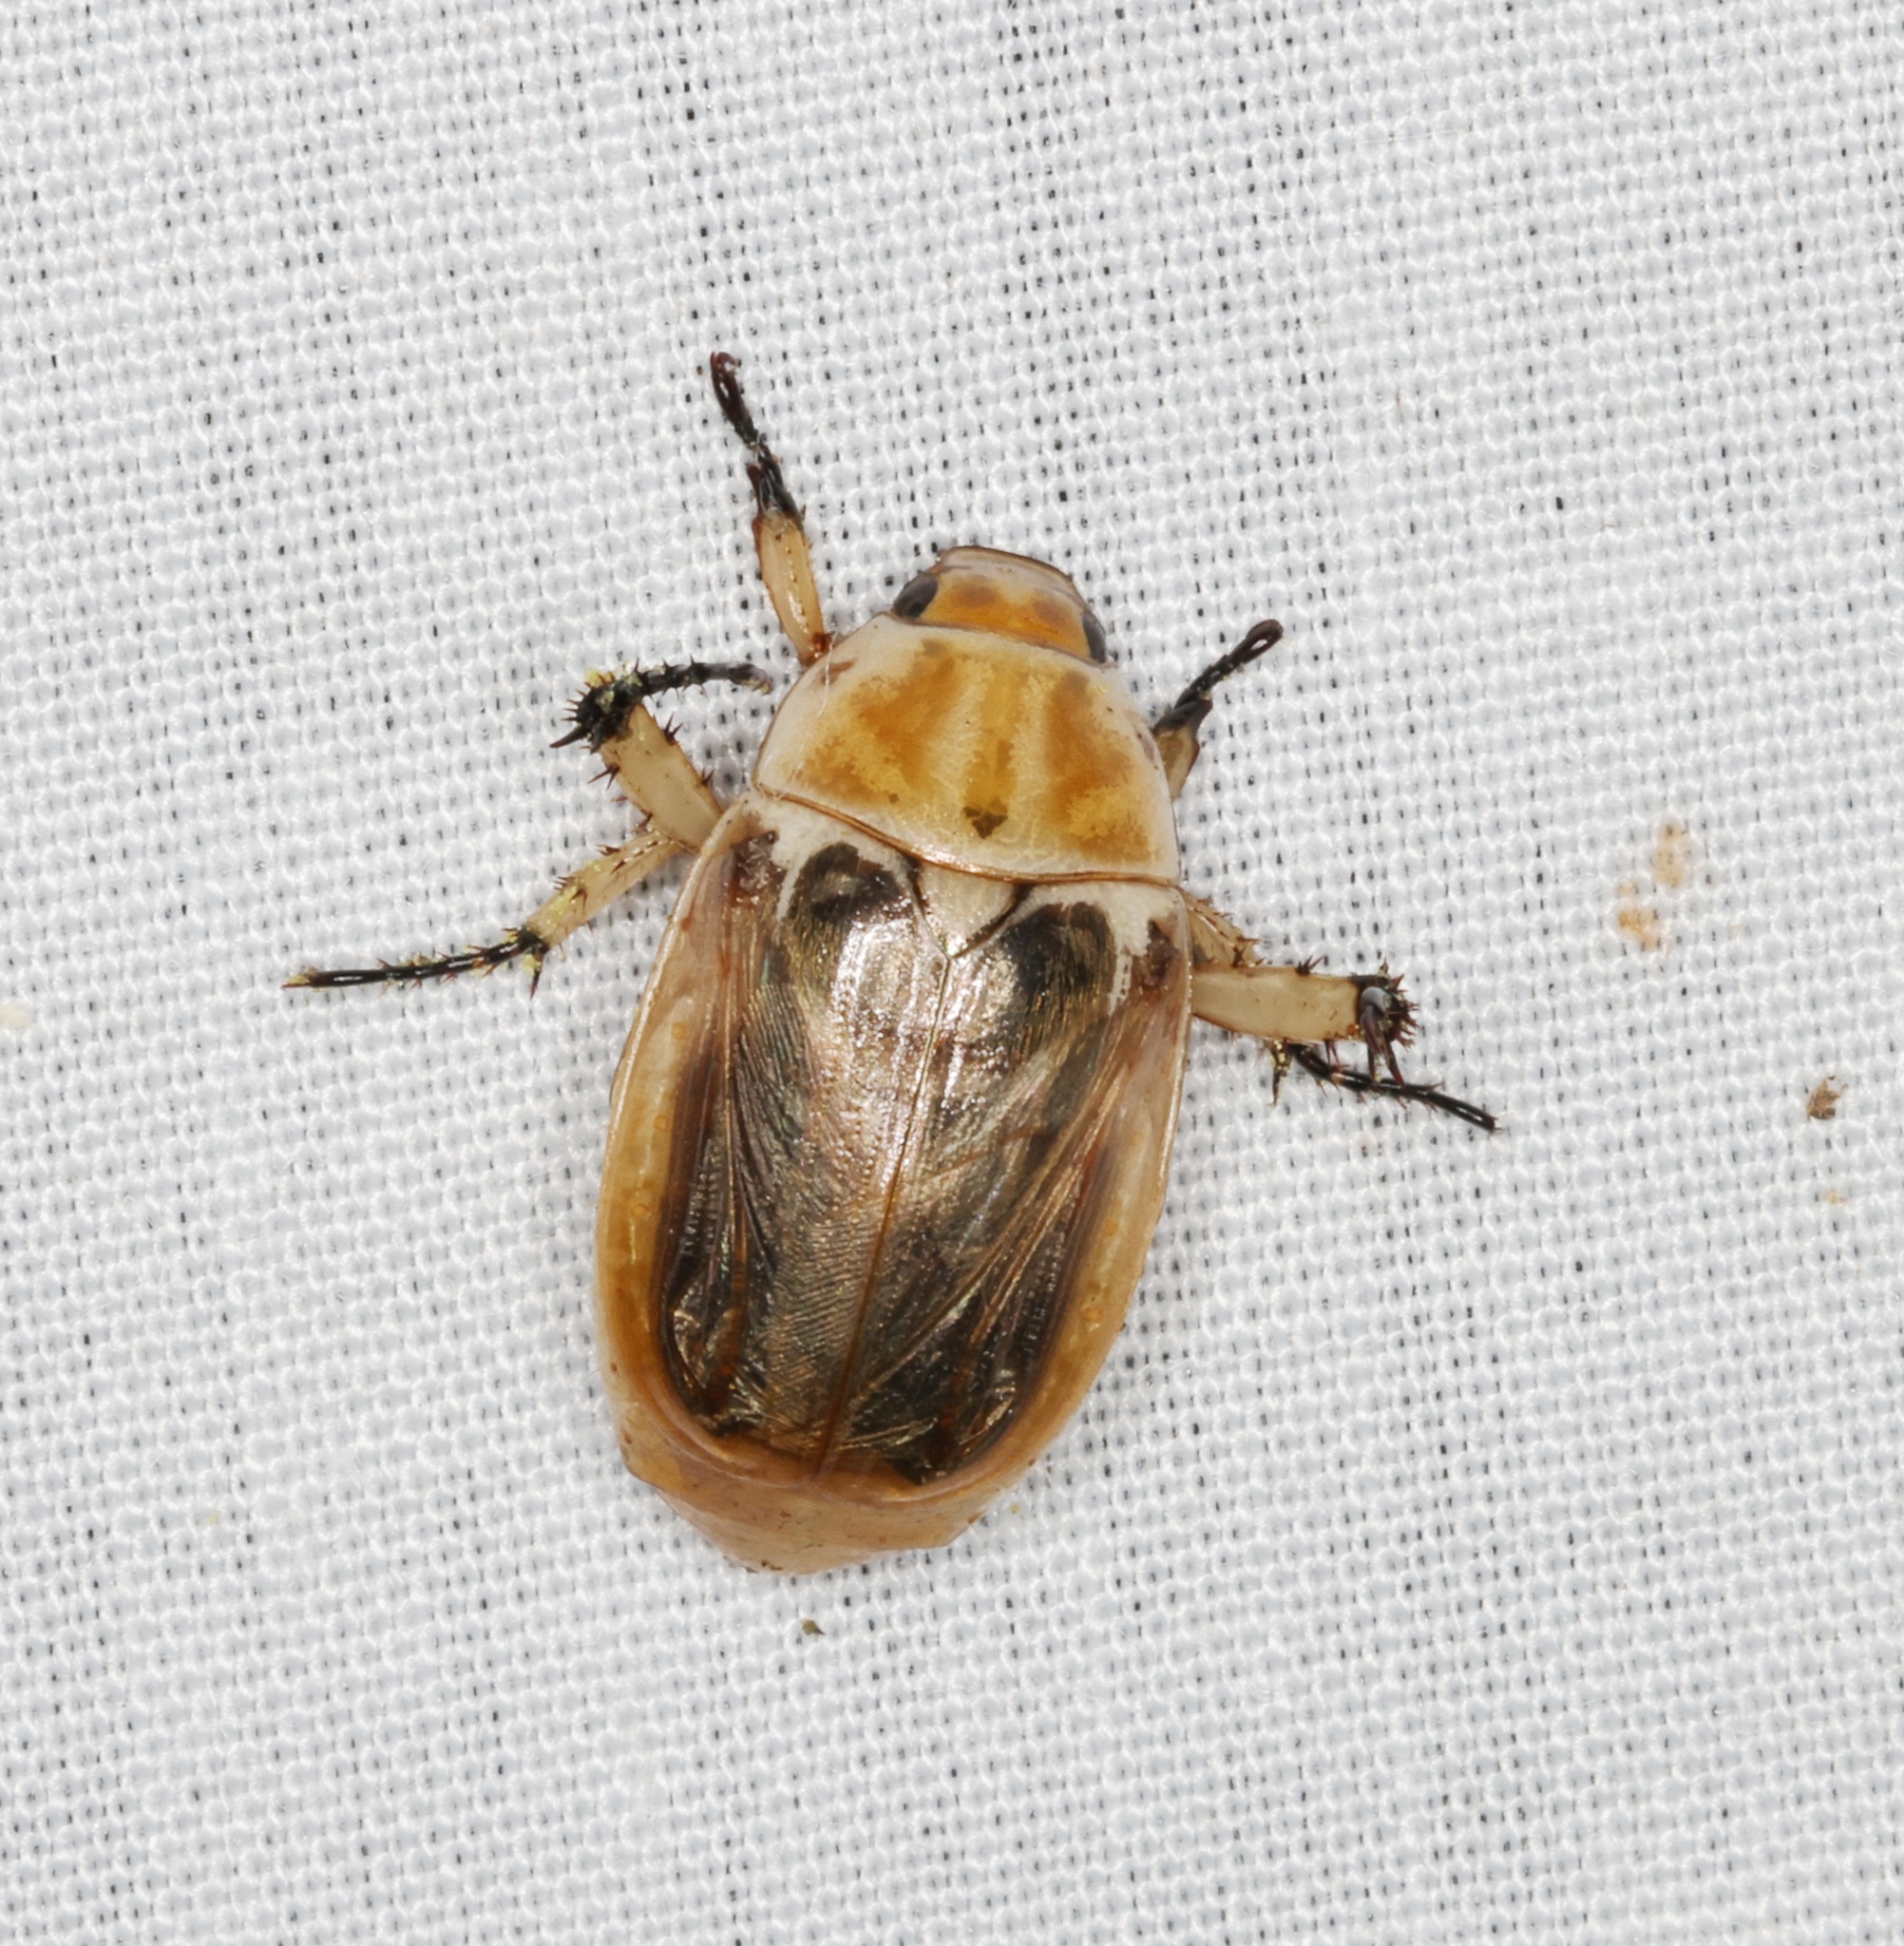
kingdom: Animalia
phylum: Arthropoda
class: Insecta
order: Coleoptera
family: Scarabaeidae
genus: Anomala
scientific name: Anomala nigripes
